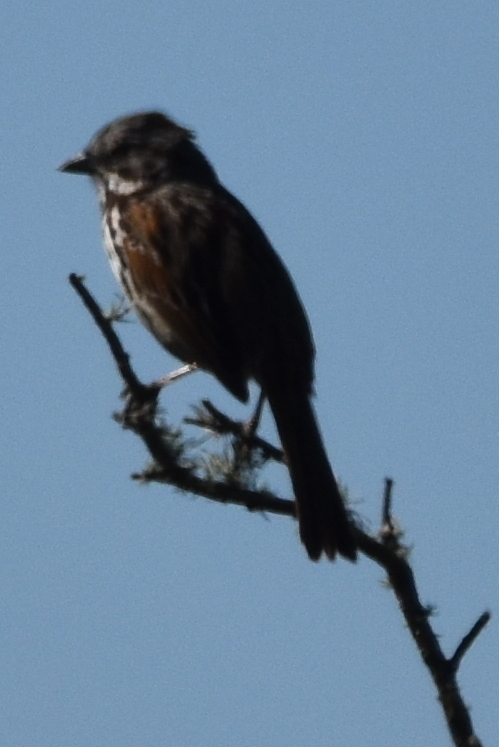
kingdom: Animalia
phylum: Chordata
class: Aves
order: Passeriformes
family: Passerellidae
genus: Melospiza
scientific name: Melospiza melodia
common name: Song sparrow
